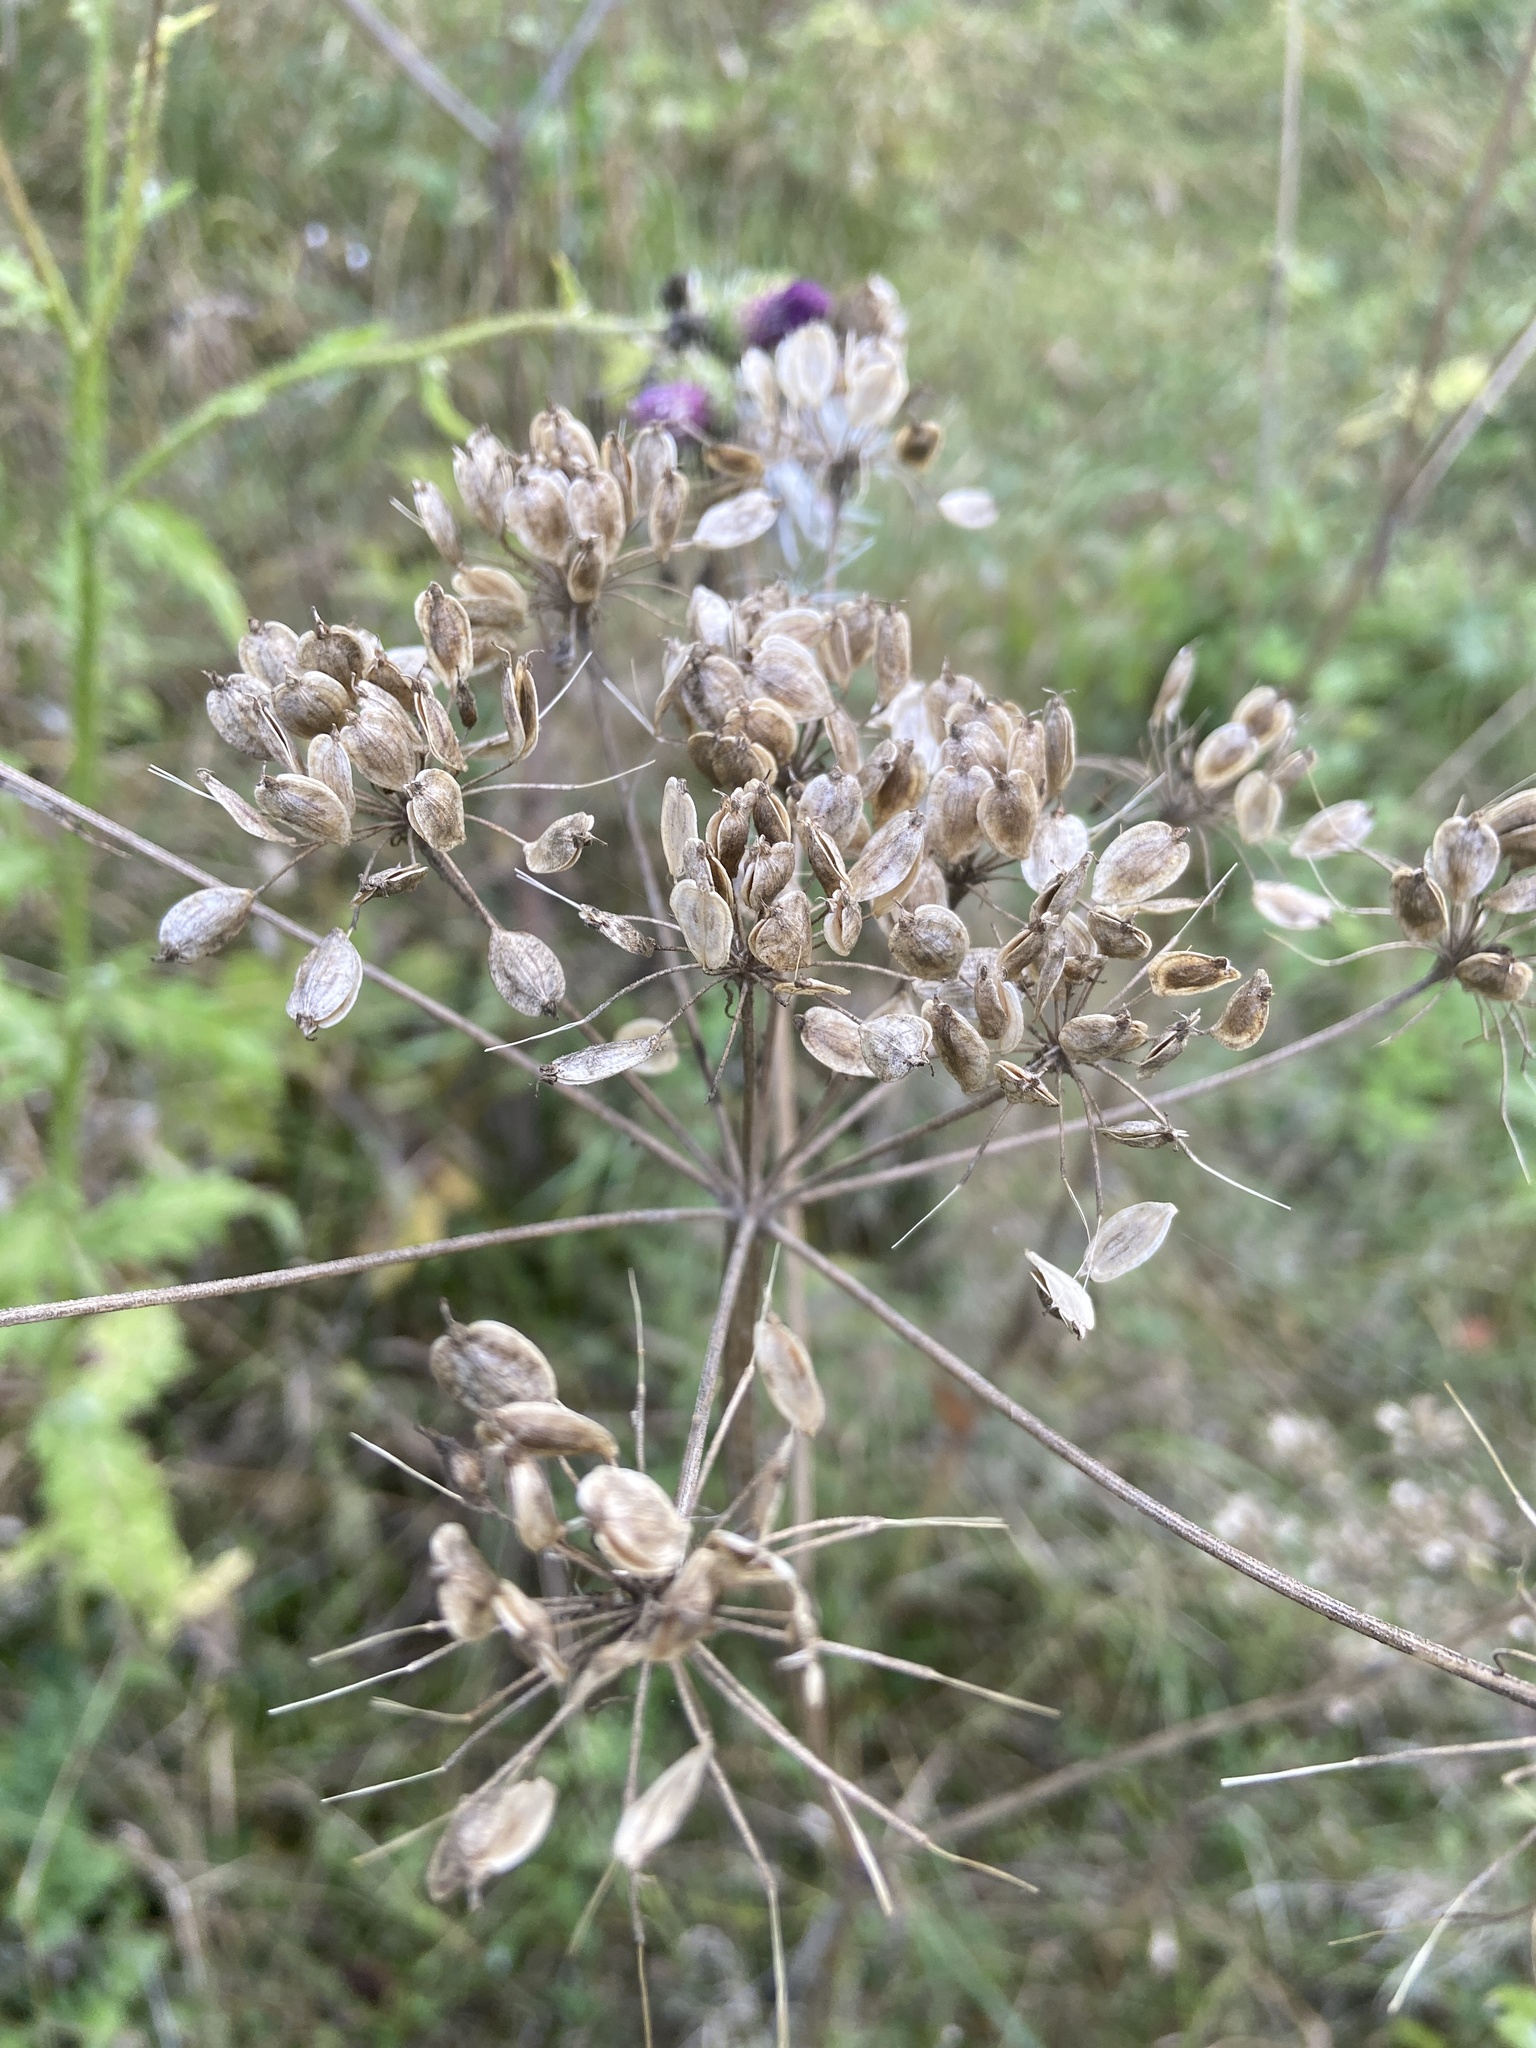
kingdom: Plantae
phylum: Tracheophyta
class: Magnoliopsida
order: Apiales
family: Apiaceae
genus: Heracleum
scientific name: Heracleum sphondylium
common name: Hogweed
